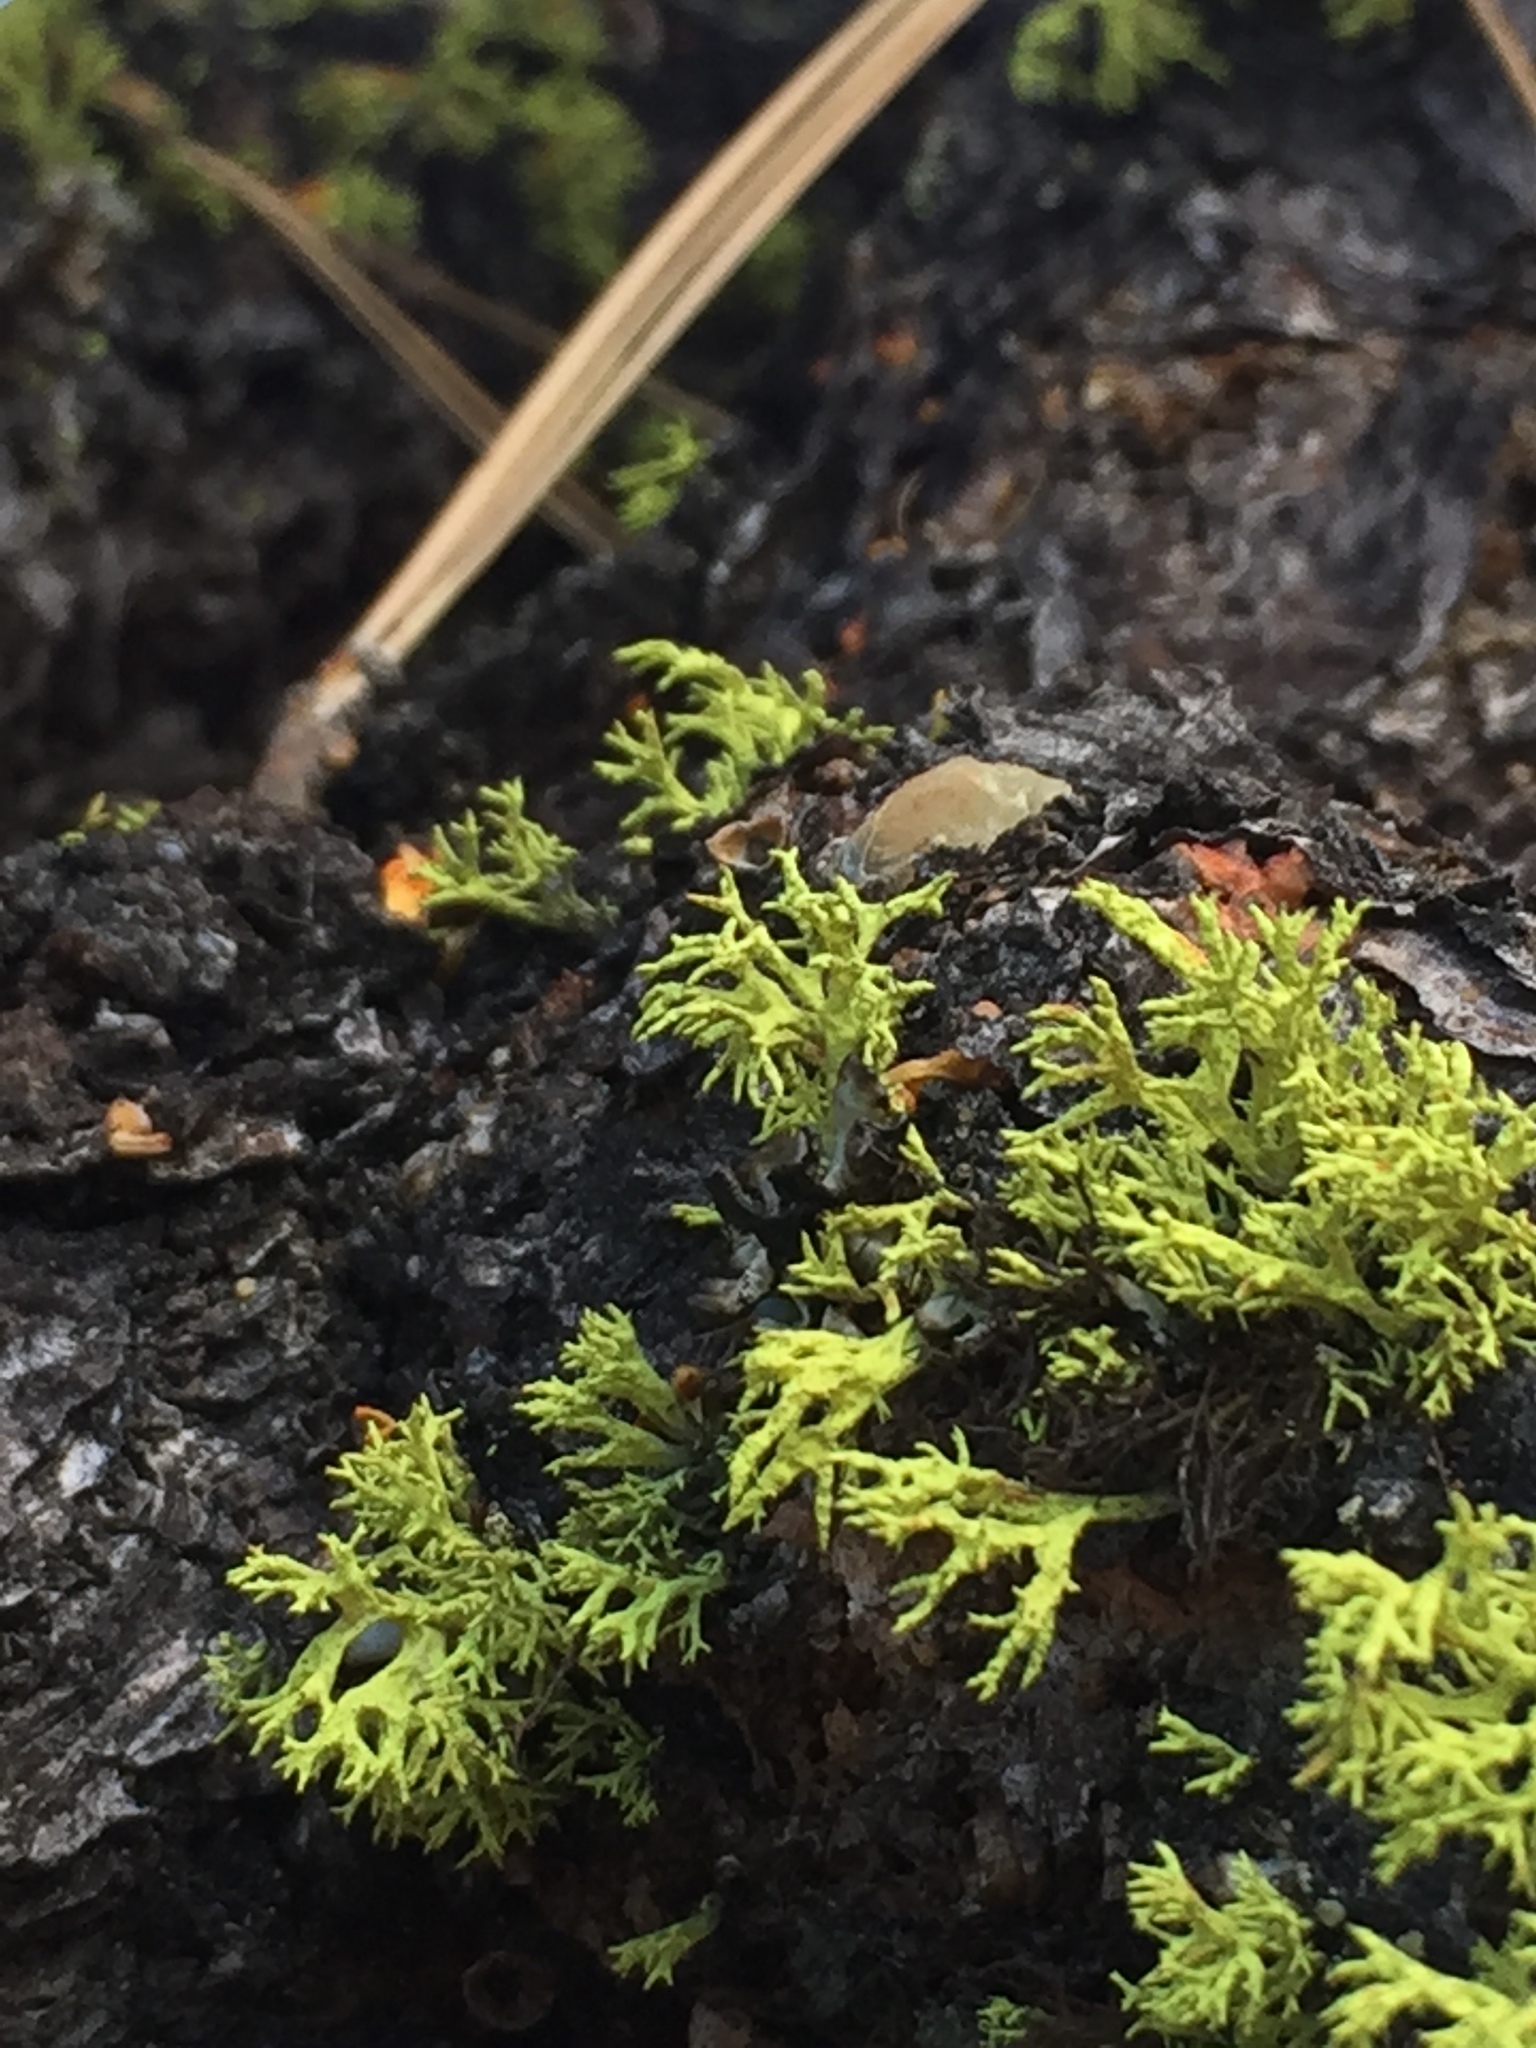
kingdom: Fungi
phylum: Ascomycota
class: Lecanoromycetes
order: Lecanorales
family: Parmeliaceae
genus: Letharia
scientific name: Letharia vulpina
